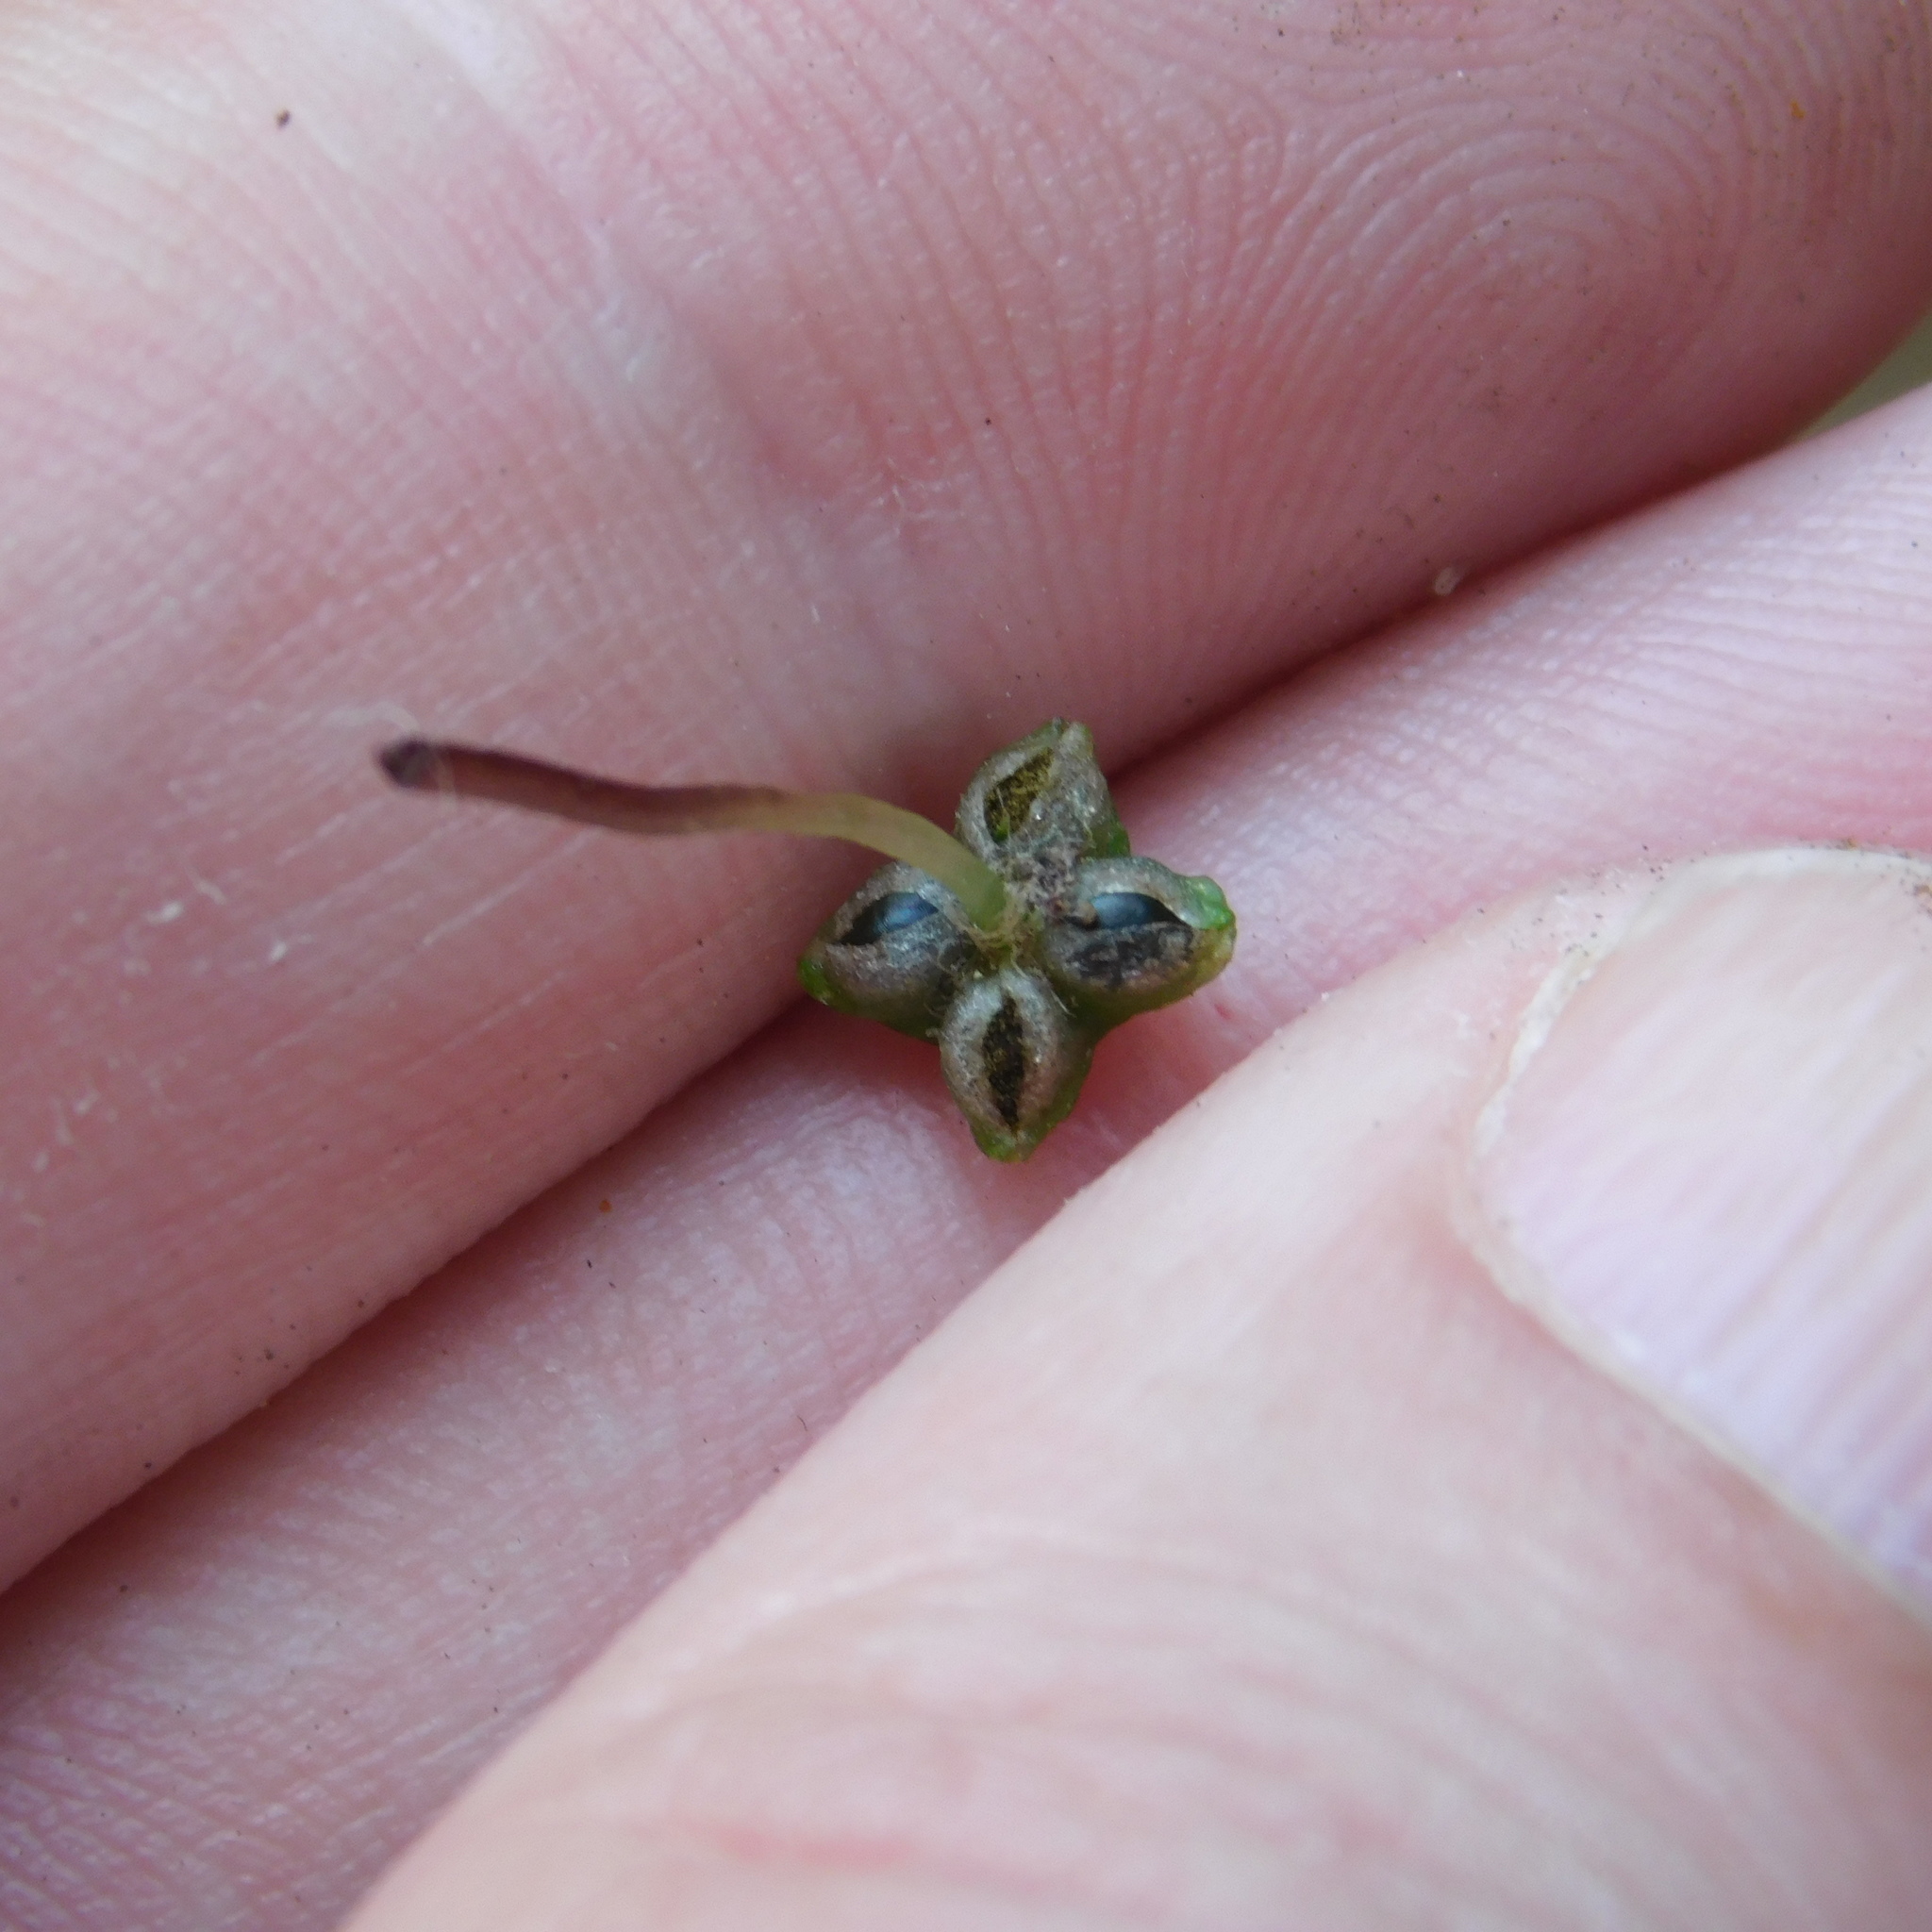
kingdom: Plantae
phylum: Marchantiophyta
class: Marchantiopsida
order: Marchantiales
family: Aytoniaceae
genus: Reboulia
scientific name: Reboulia hemisphaerica
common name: Purple-margined liverwort
